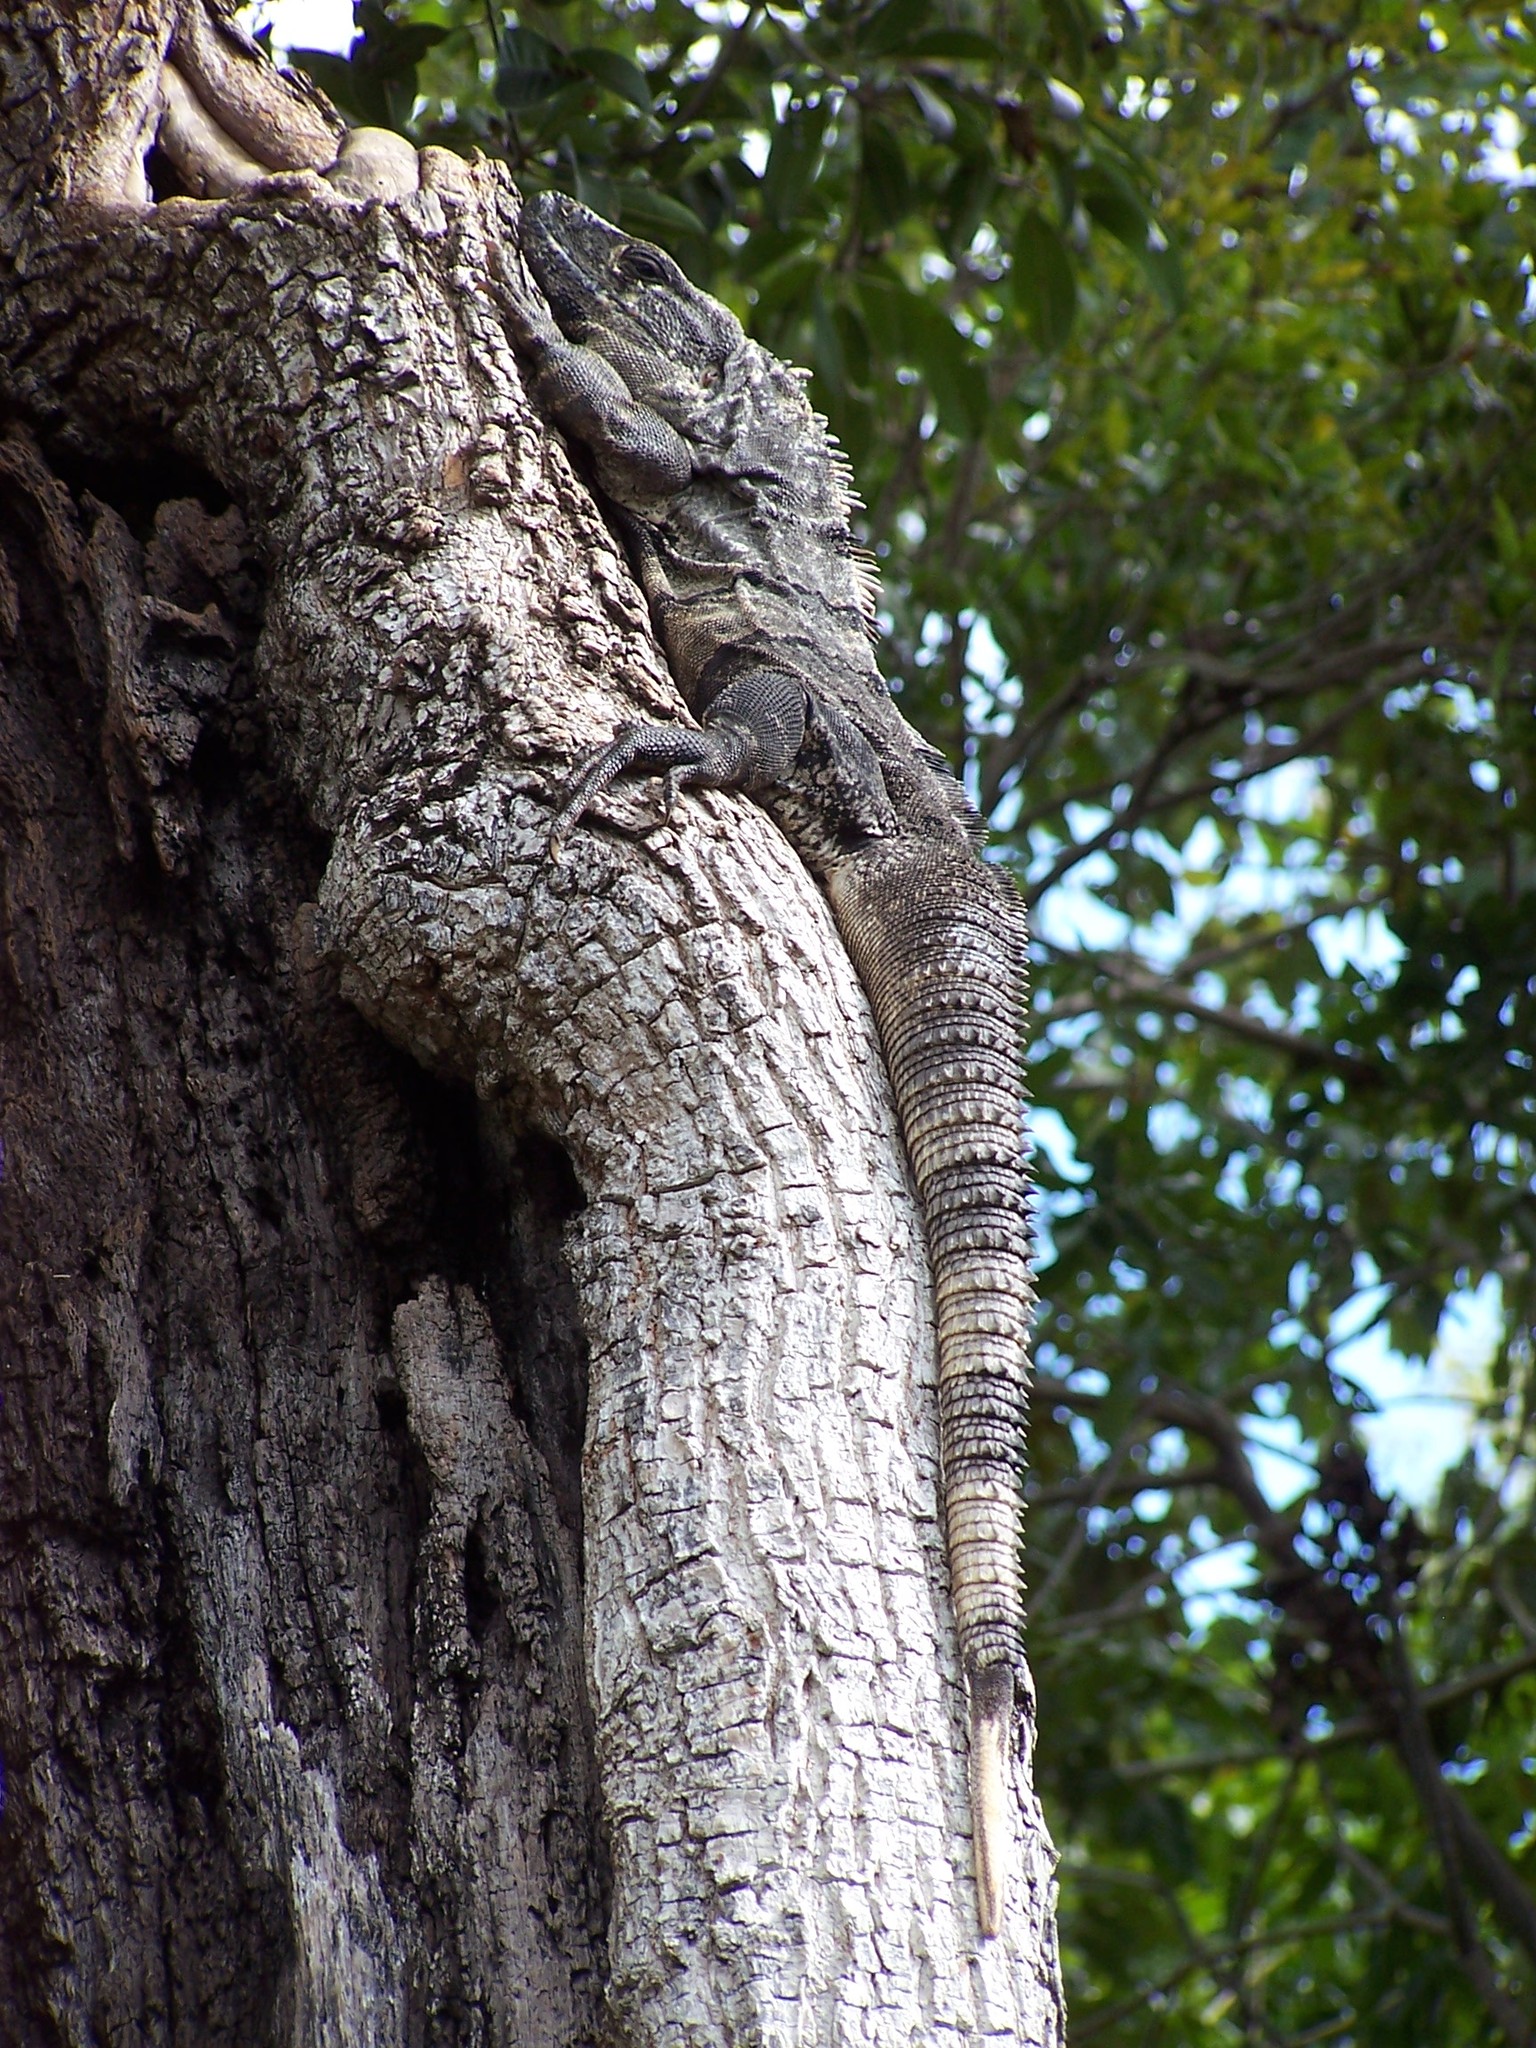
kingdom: Animalia
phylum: Chordata
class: Squamata
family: Iguanidae
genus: Ctenosaura
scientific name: Ctenosaura similis
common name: Black spiny-tailed iguana
